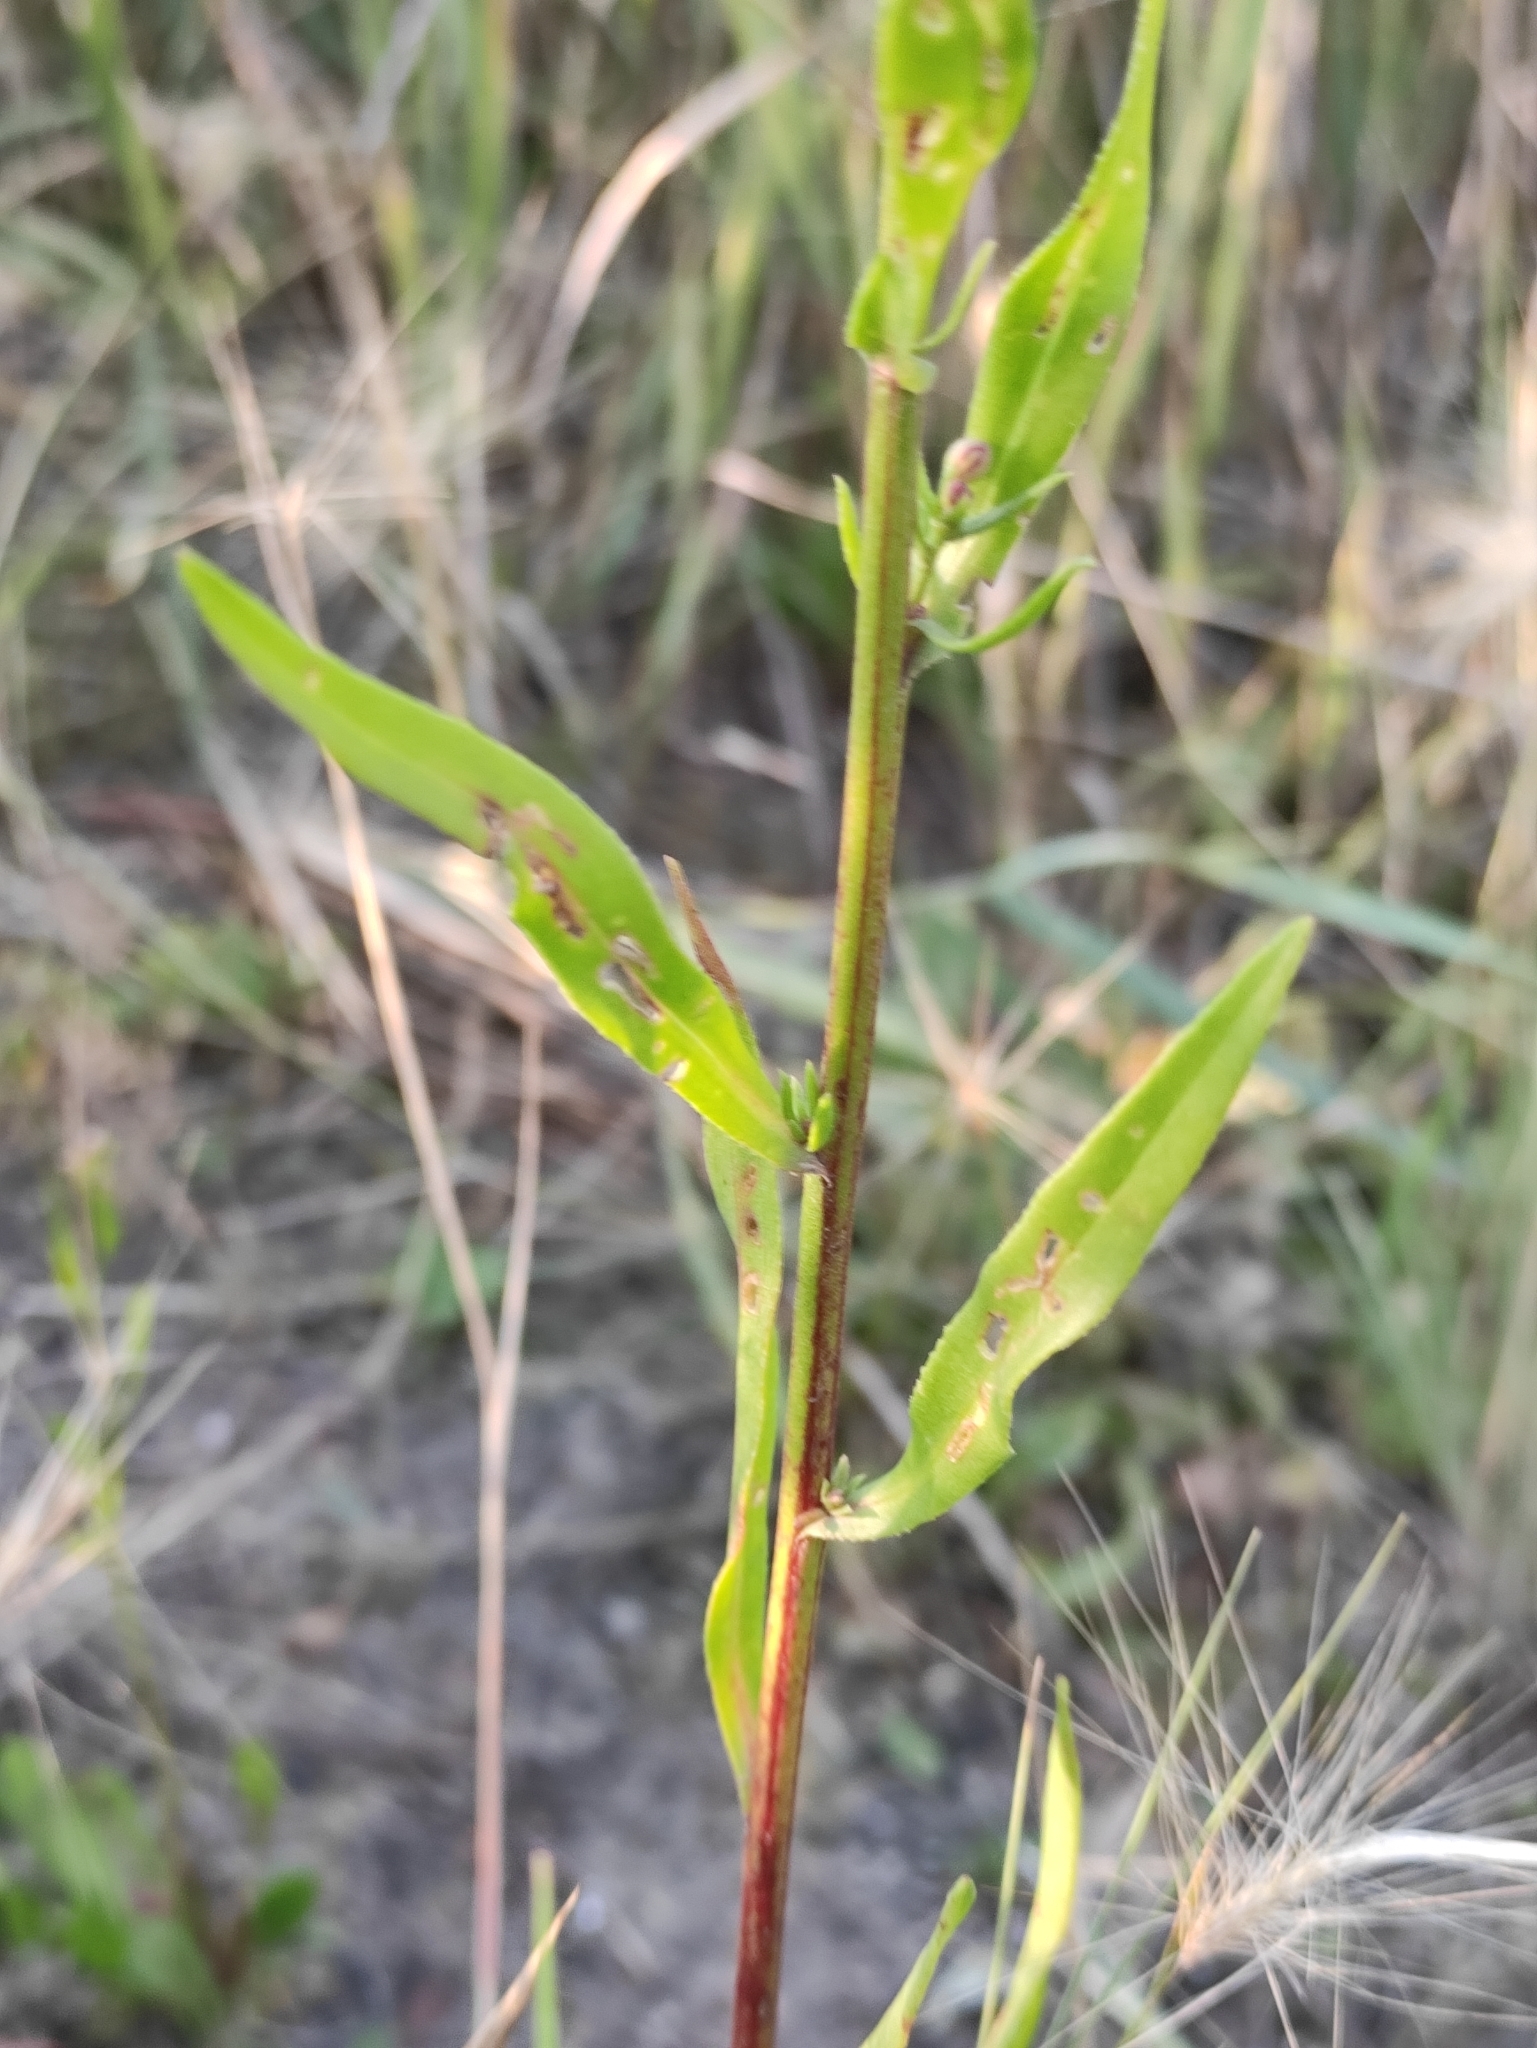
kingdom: Plantae
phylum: Tracheophyta
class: Magnoliopsida
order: Asterales
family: Asteraceae
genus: Tripolium
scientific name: Tripolium pannonicum
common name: Sea aster
